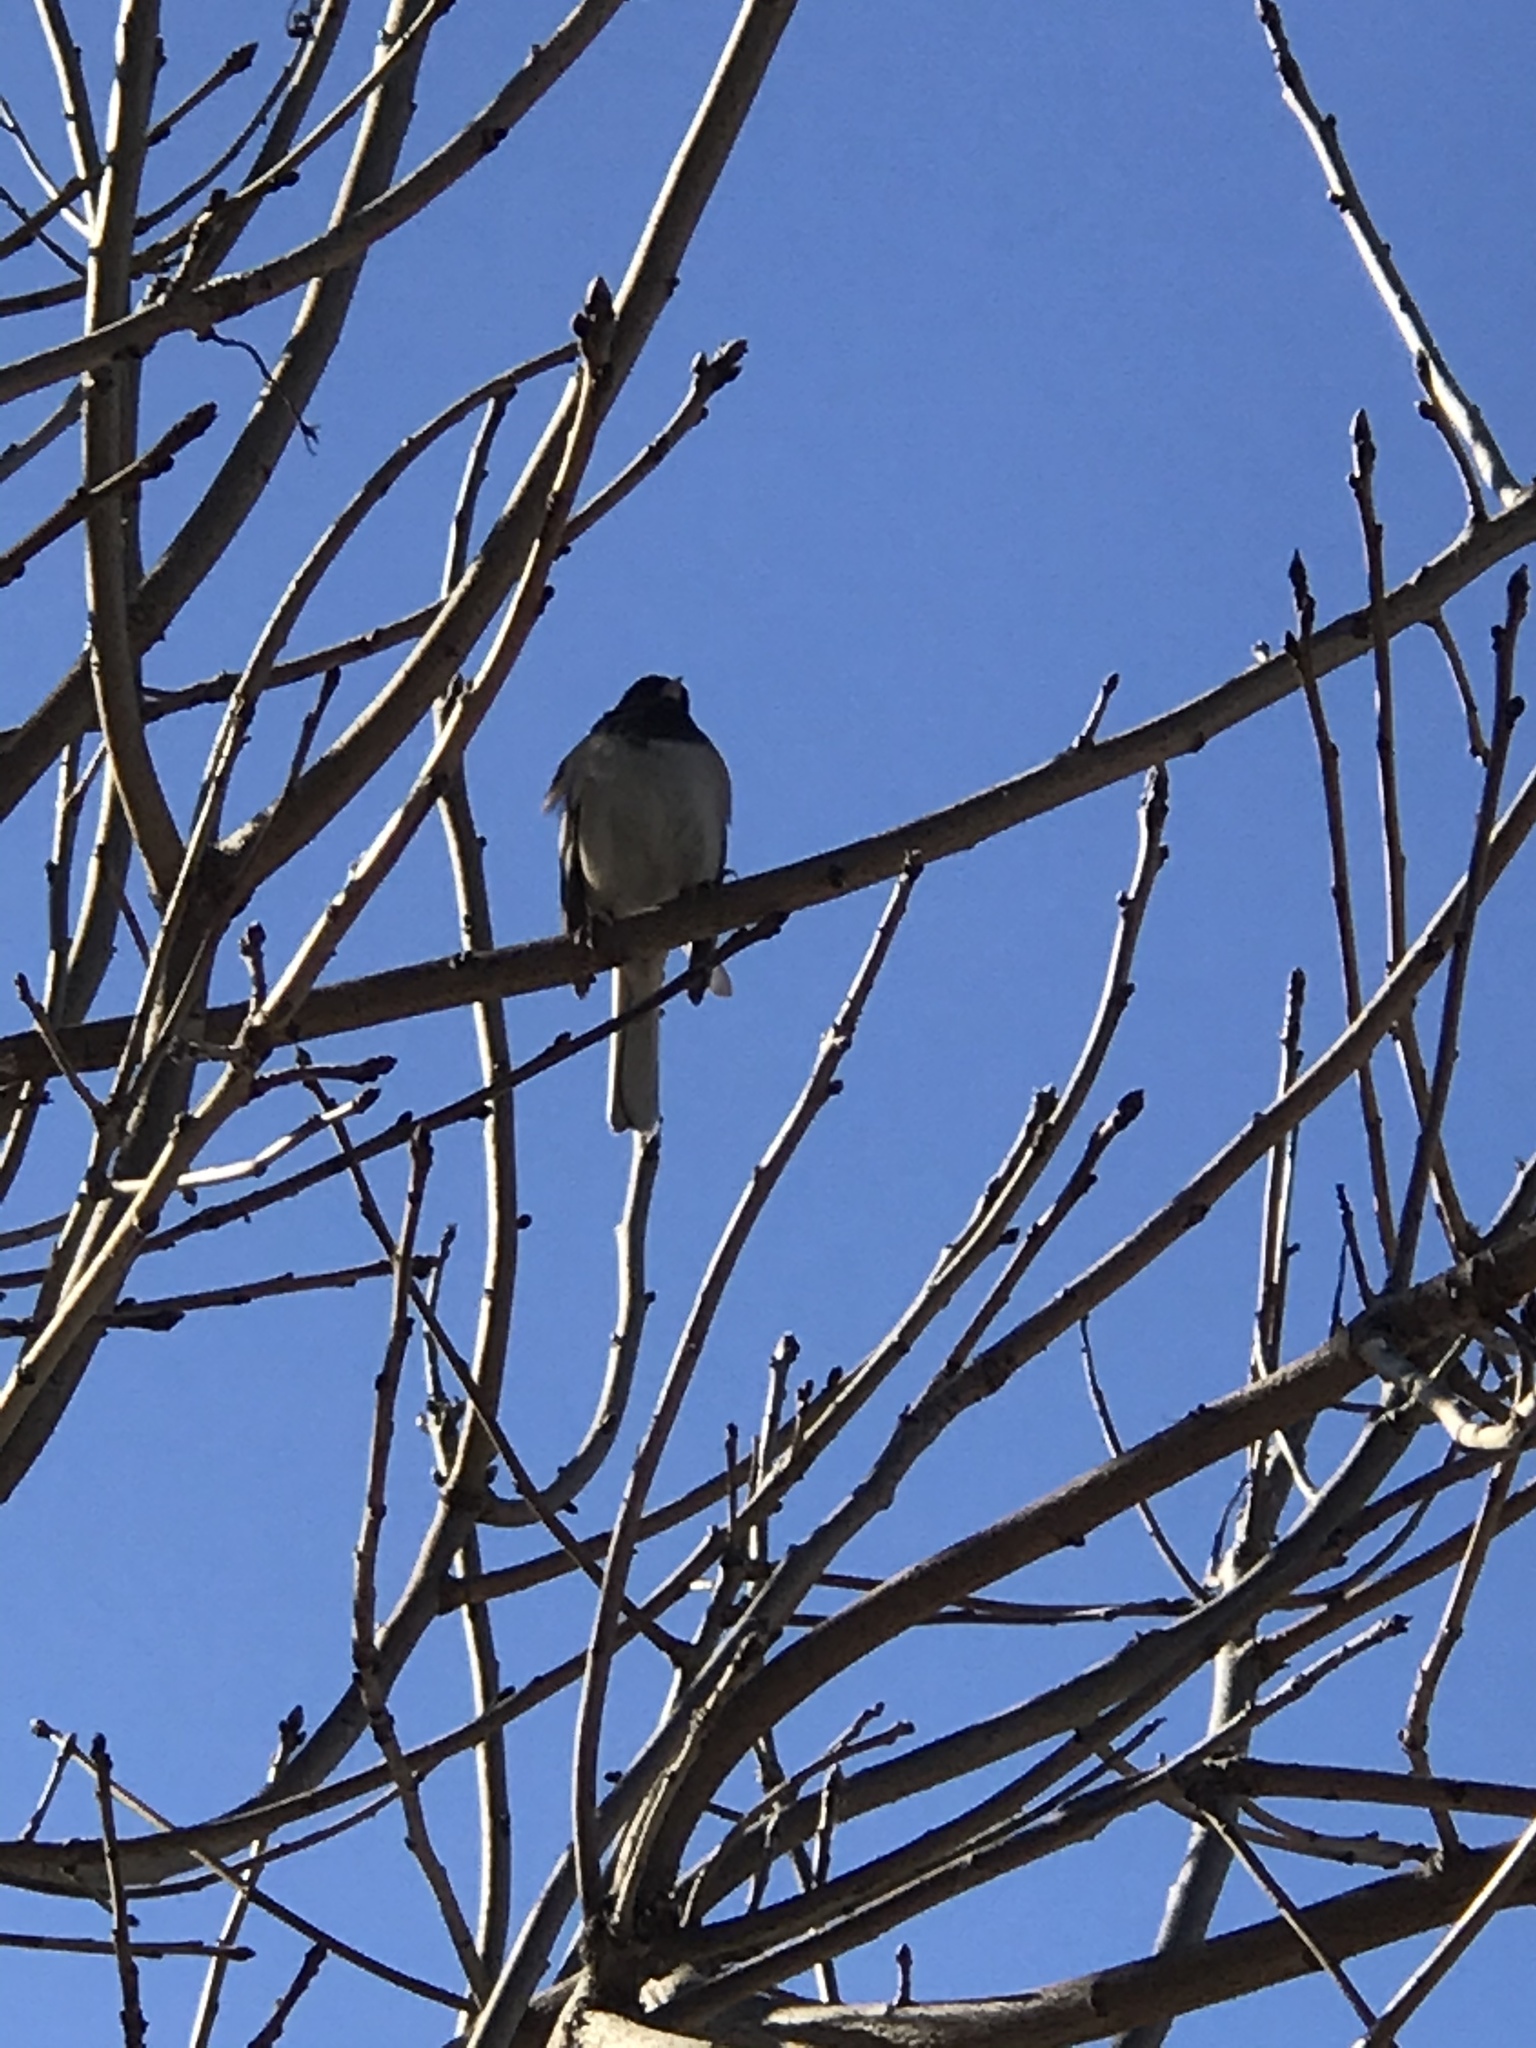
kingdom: Animalia
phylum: Chordata
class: Aves
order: Passeriformes
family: Passerellidae
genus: Junco
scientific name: Junco hyemalis
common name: Dark-eyed junco
